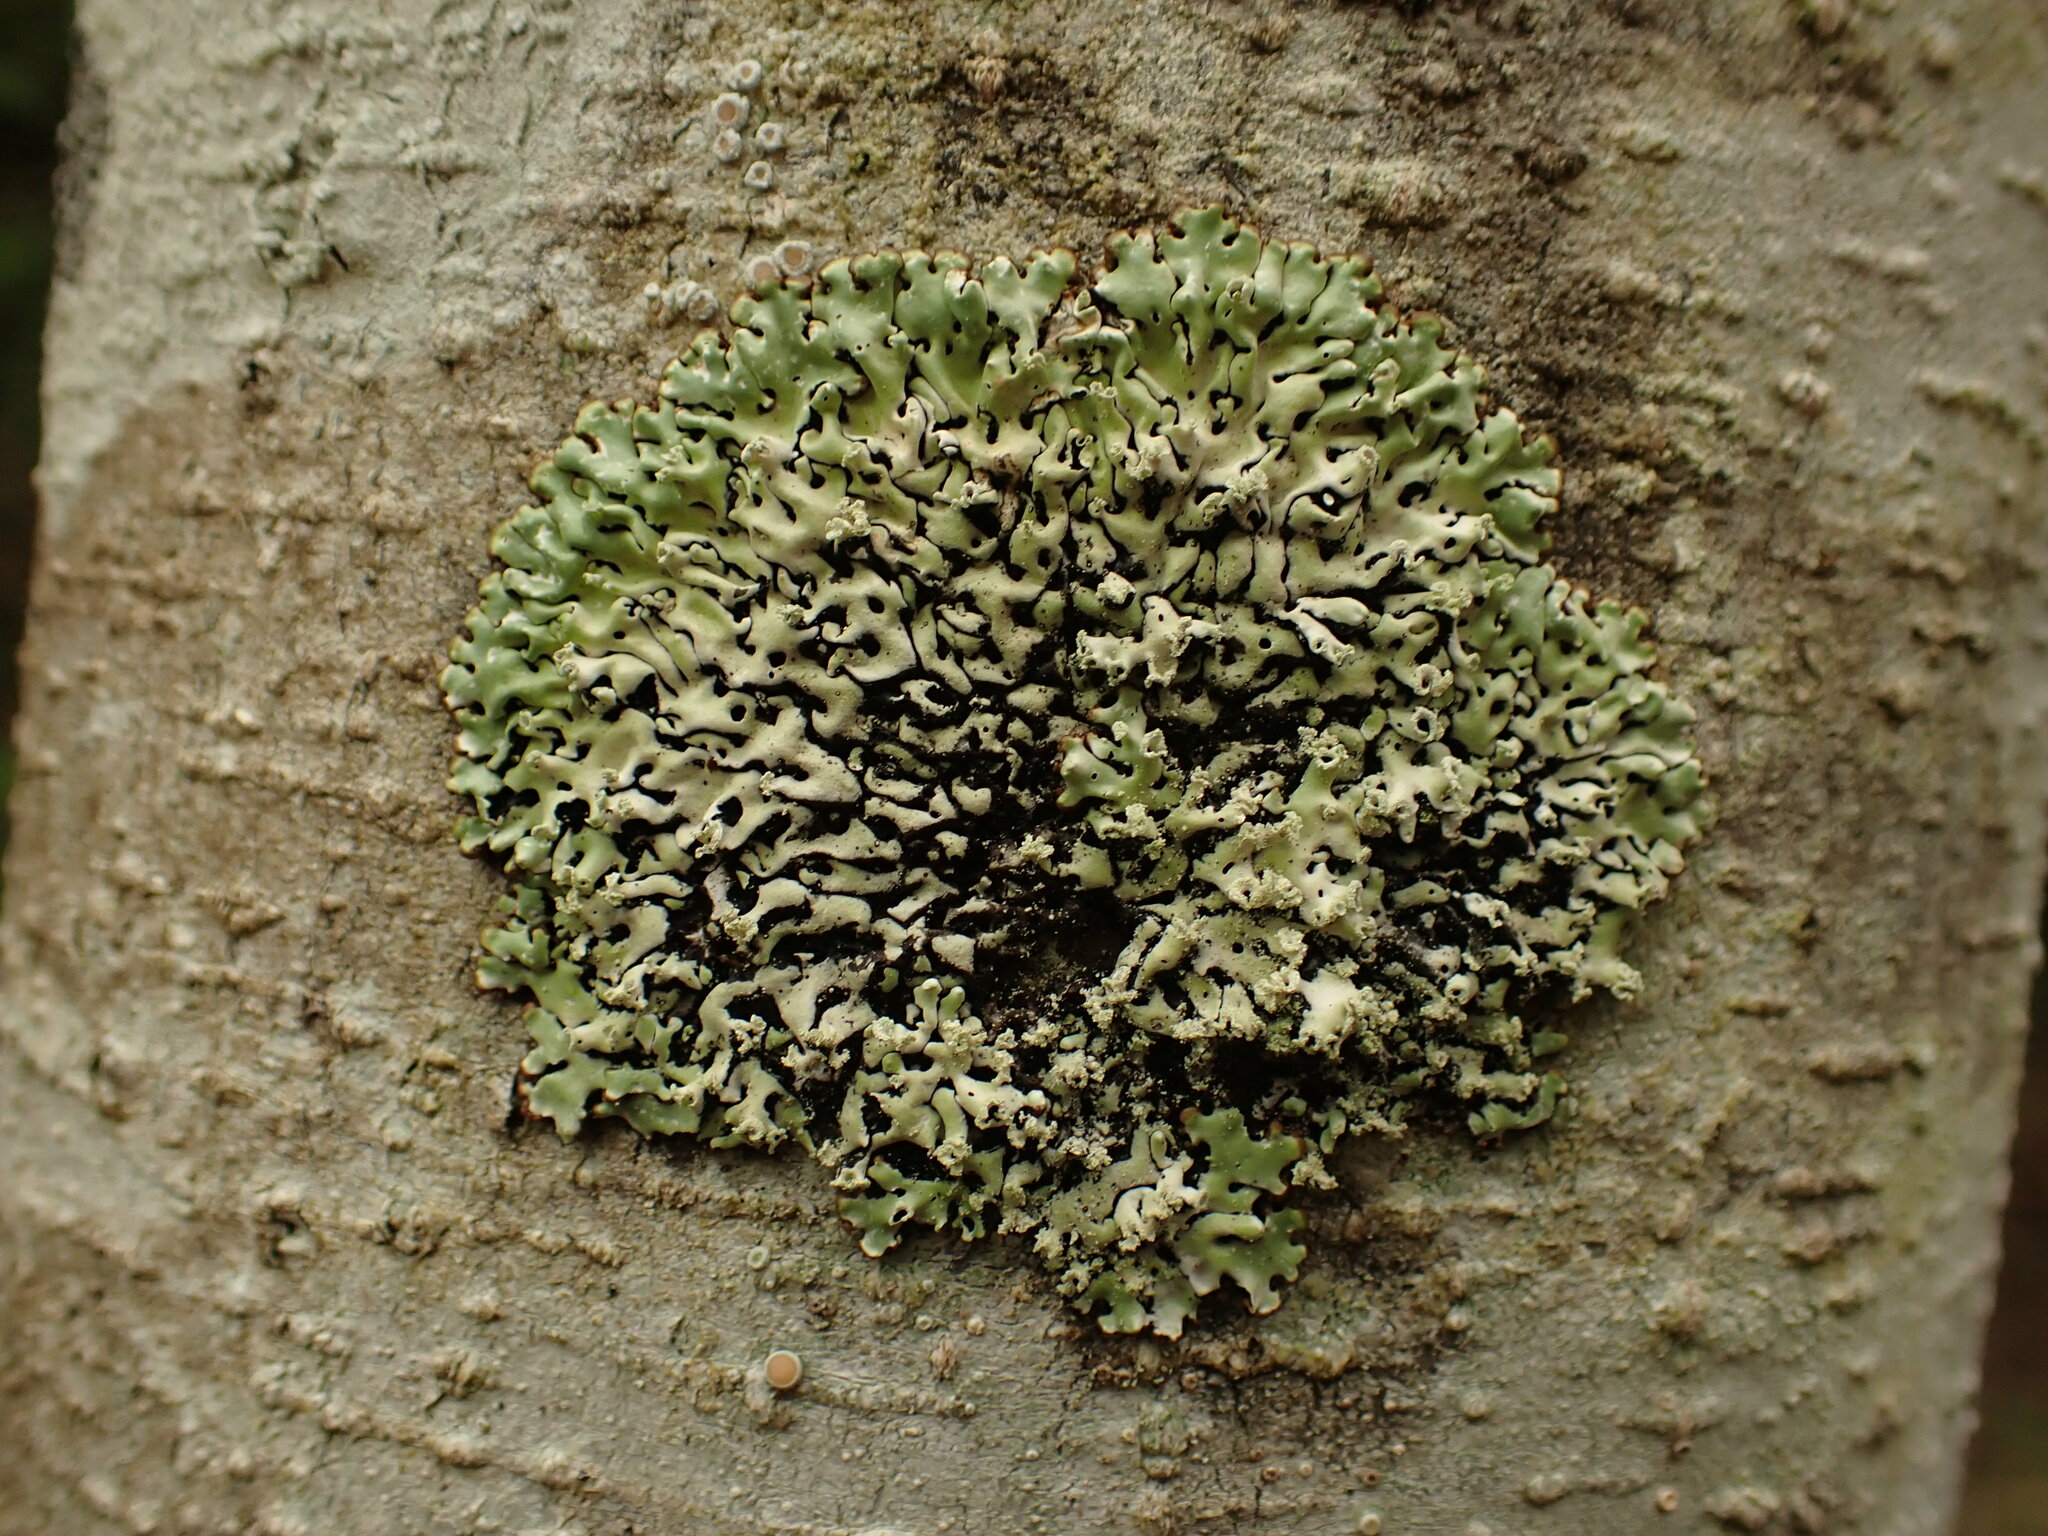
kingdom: Fungi
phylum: Ascomycota
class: Lecanoromycetes
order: Lecanorales
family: Parmeliaceae
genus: Menegazzia
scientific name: Menegazzia subsimilis
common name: Tree flute lichen
